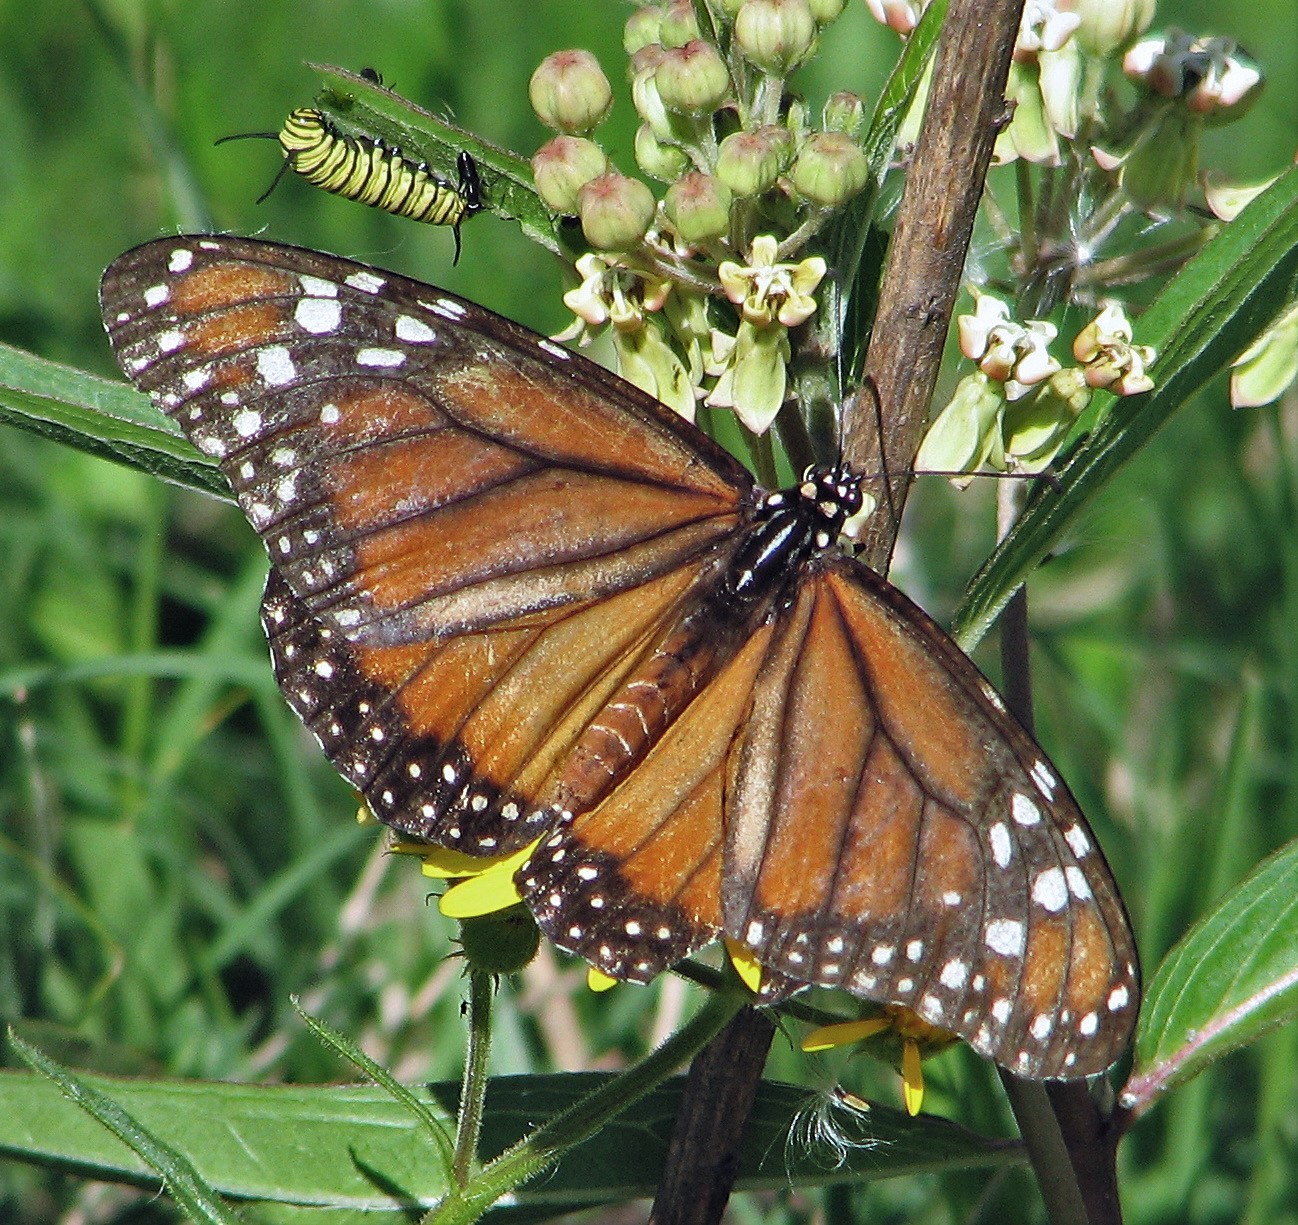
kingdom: Animalia
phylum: Arthropoda
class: Insecta
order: Lepidoptera
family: Nymphalidae
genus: Danaus
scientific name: Danaus erippus
